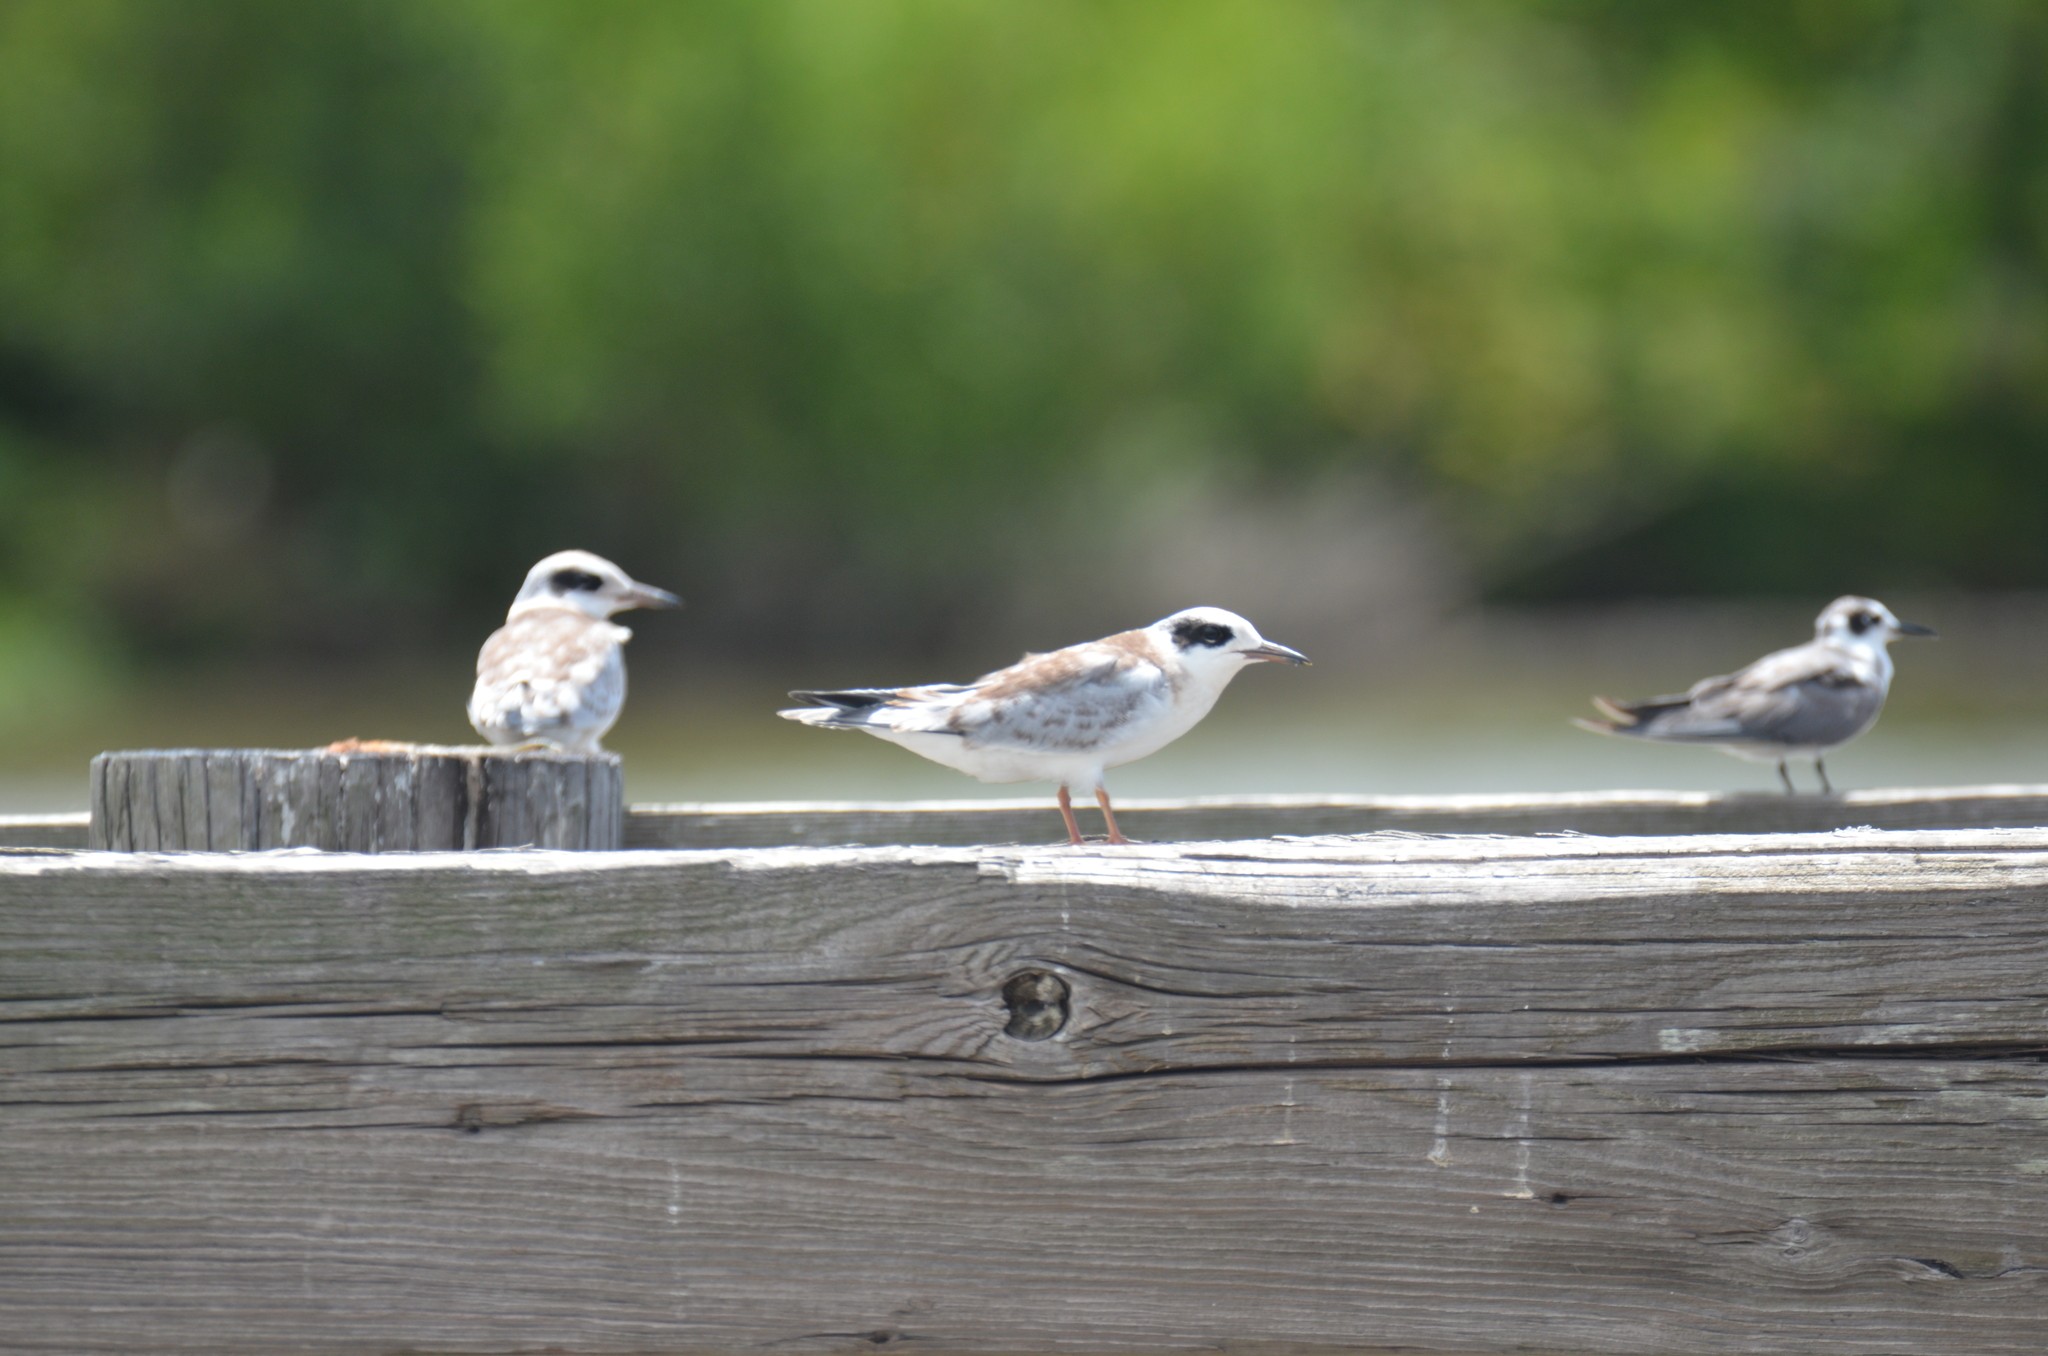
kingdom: Animalia
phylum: Chordata
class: Aves
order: Charadriiformes
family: Laridae
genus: Sterna
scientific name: Sterna forsteri
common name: Forster's tern
